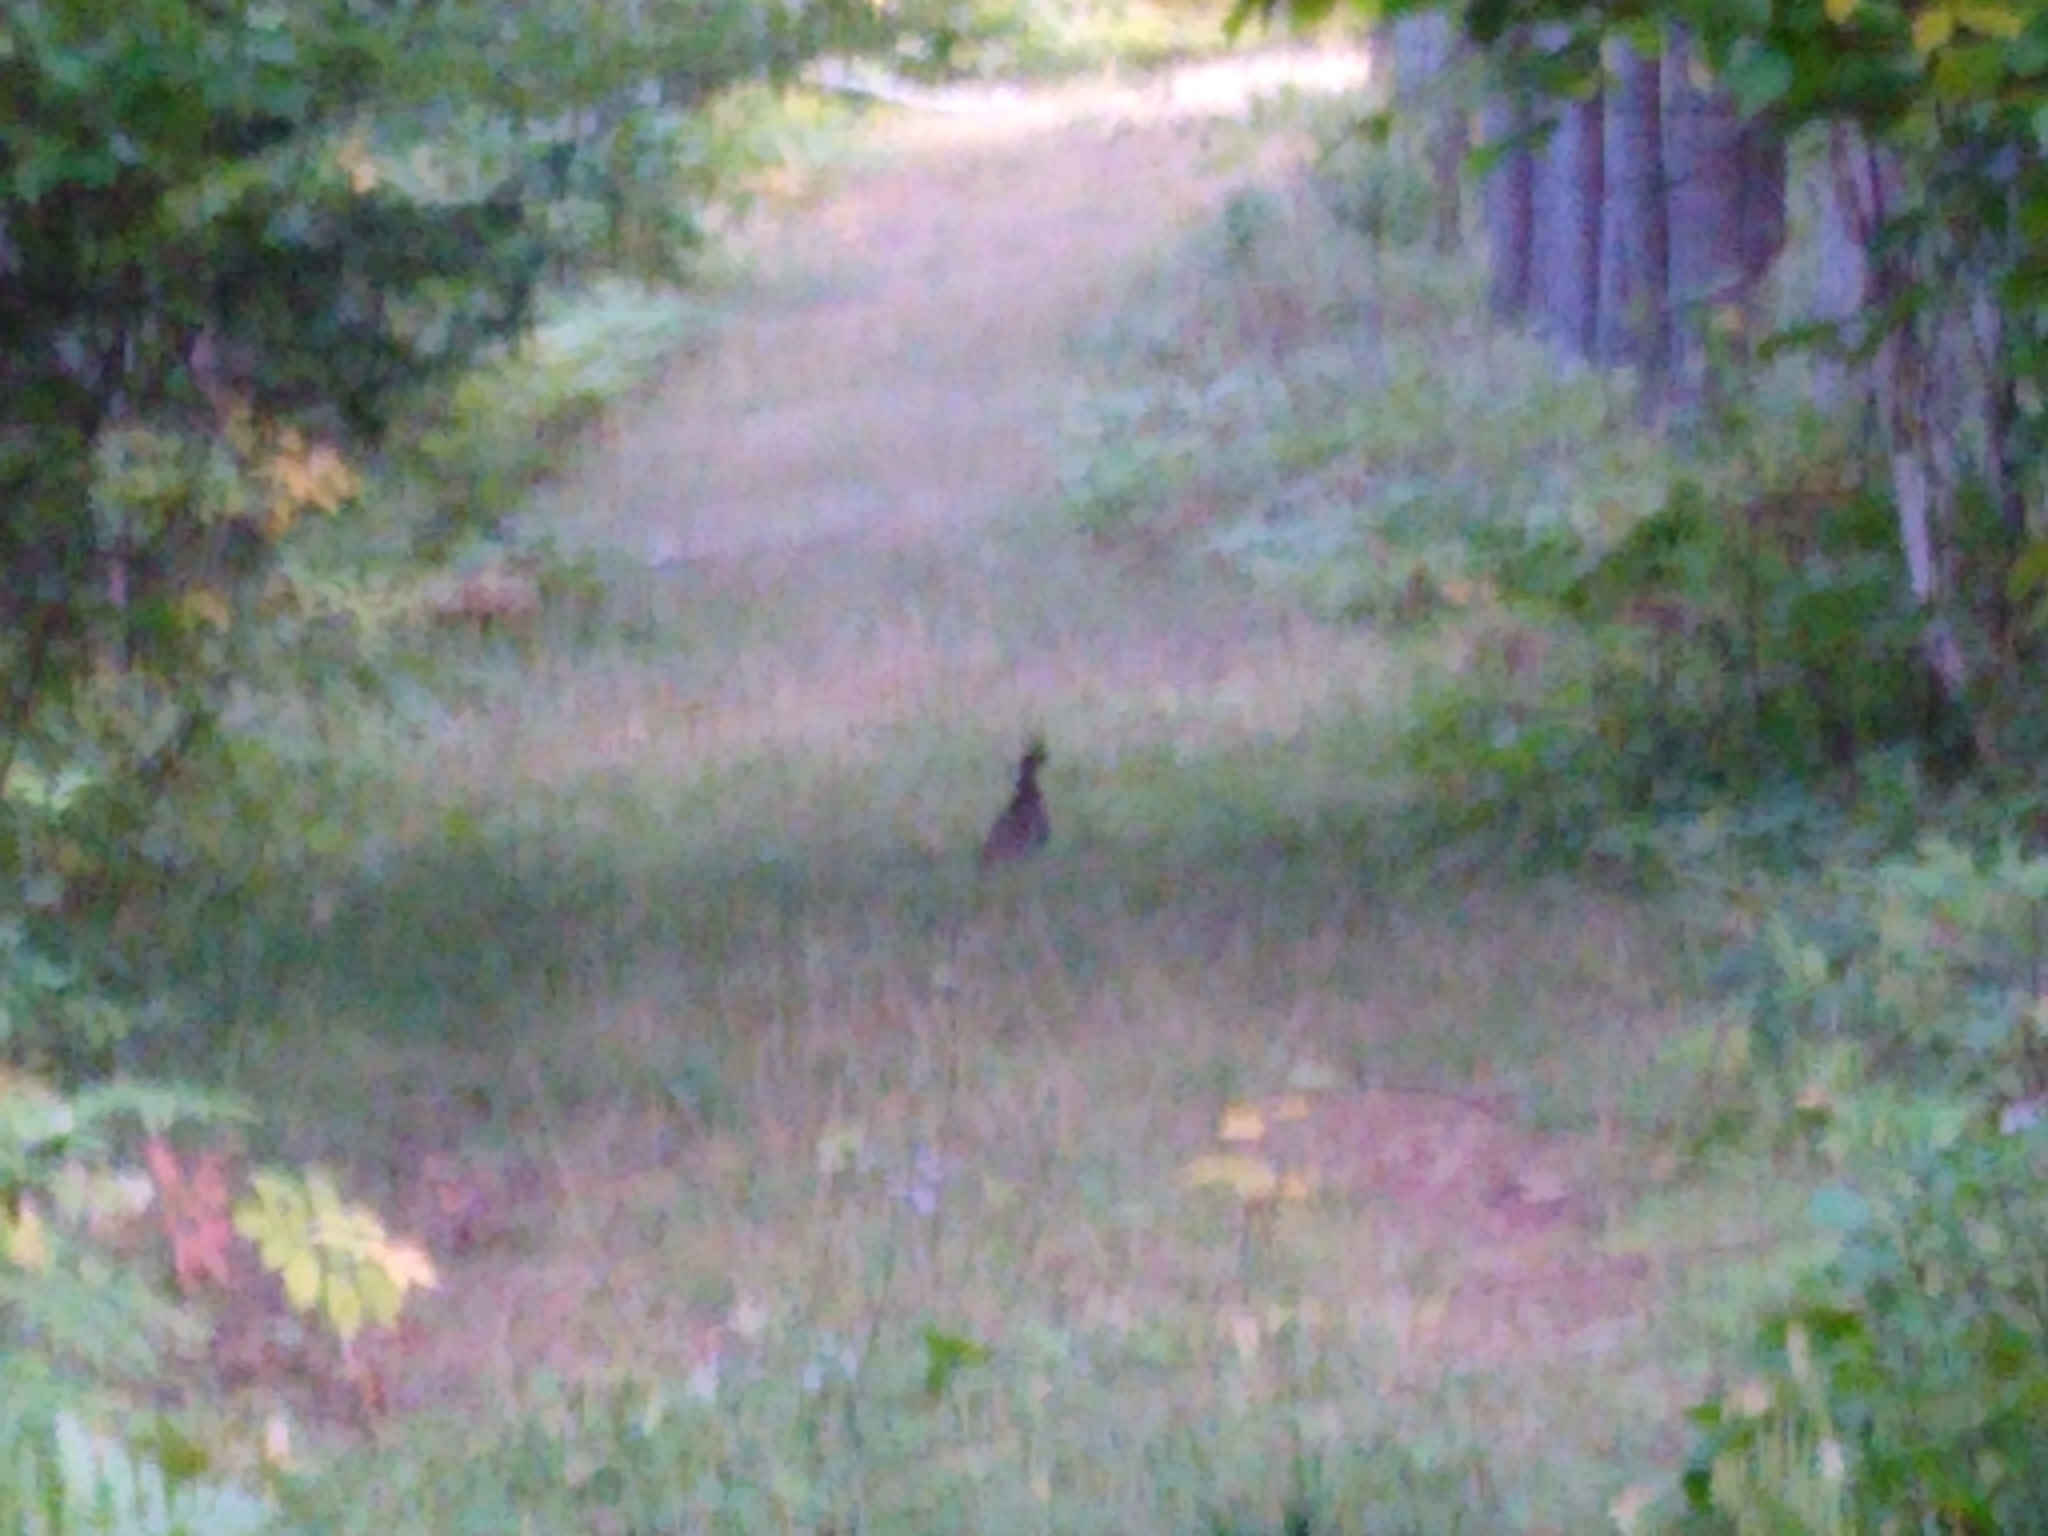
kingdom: Animalia
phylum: Chordata
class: Aves
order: Galliformes
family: Phasianidae
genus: Bonasa
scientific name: Bonasa umbellus
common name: Ruffed grouse
